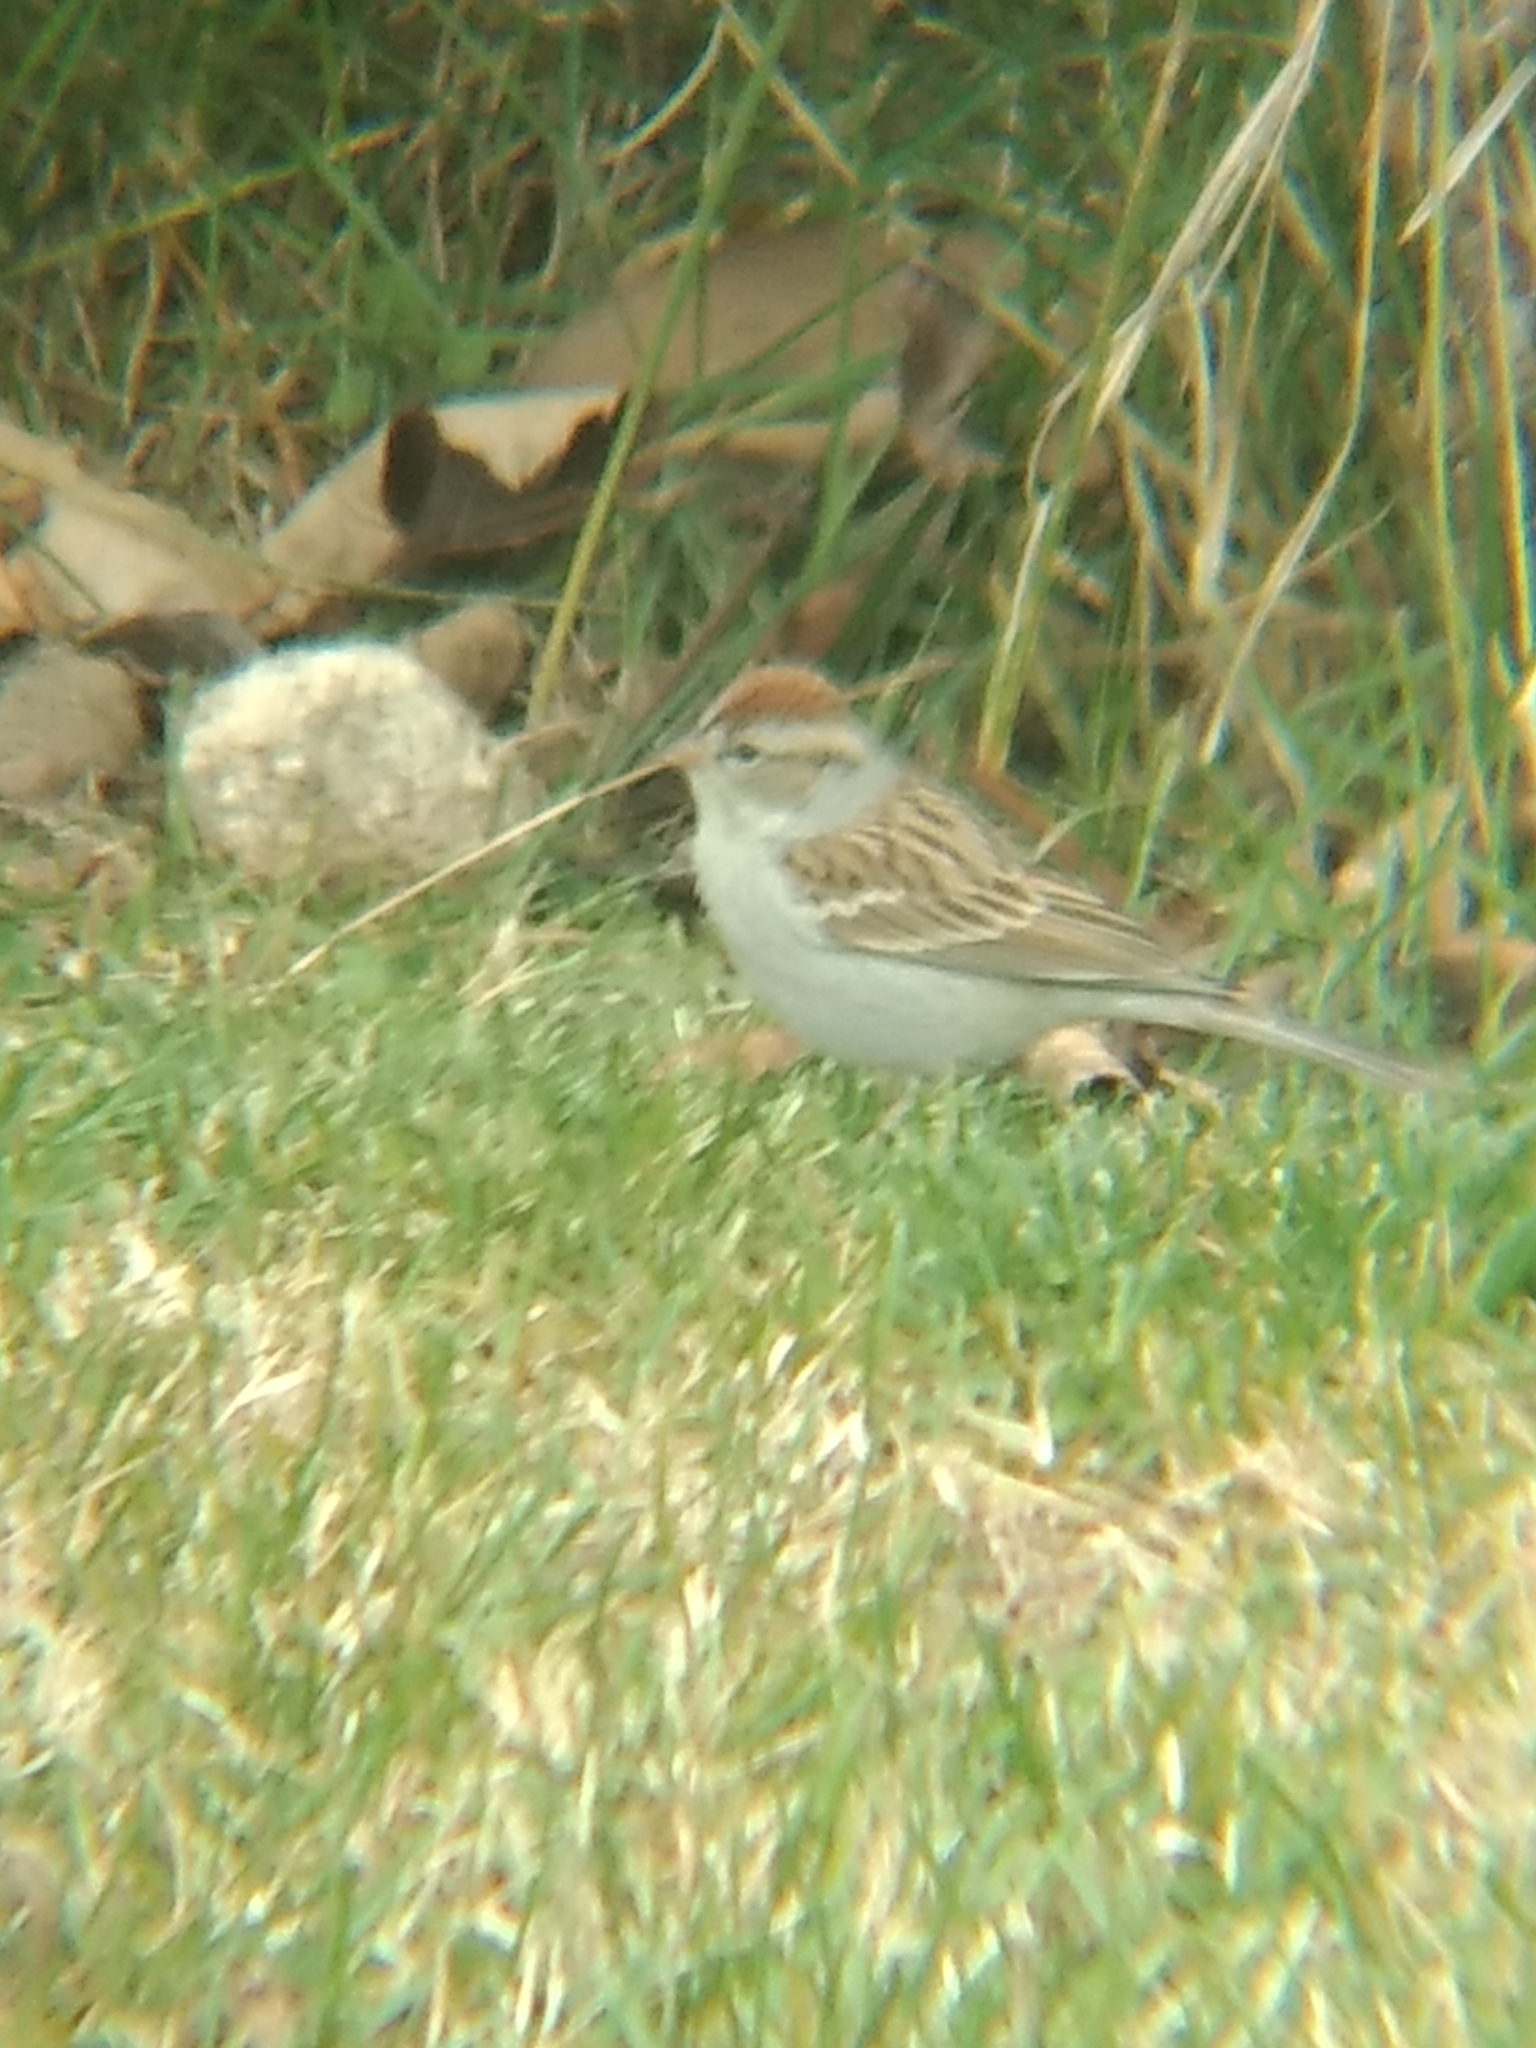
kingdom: Animalia
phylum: Chordata
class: Aves
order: Passeriformes
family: Passerellidae
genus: Spizella
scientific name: Spizella passerina
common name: Chipping sparrow
